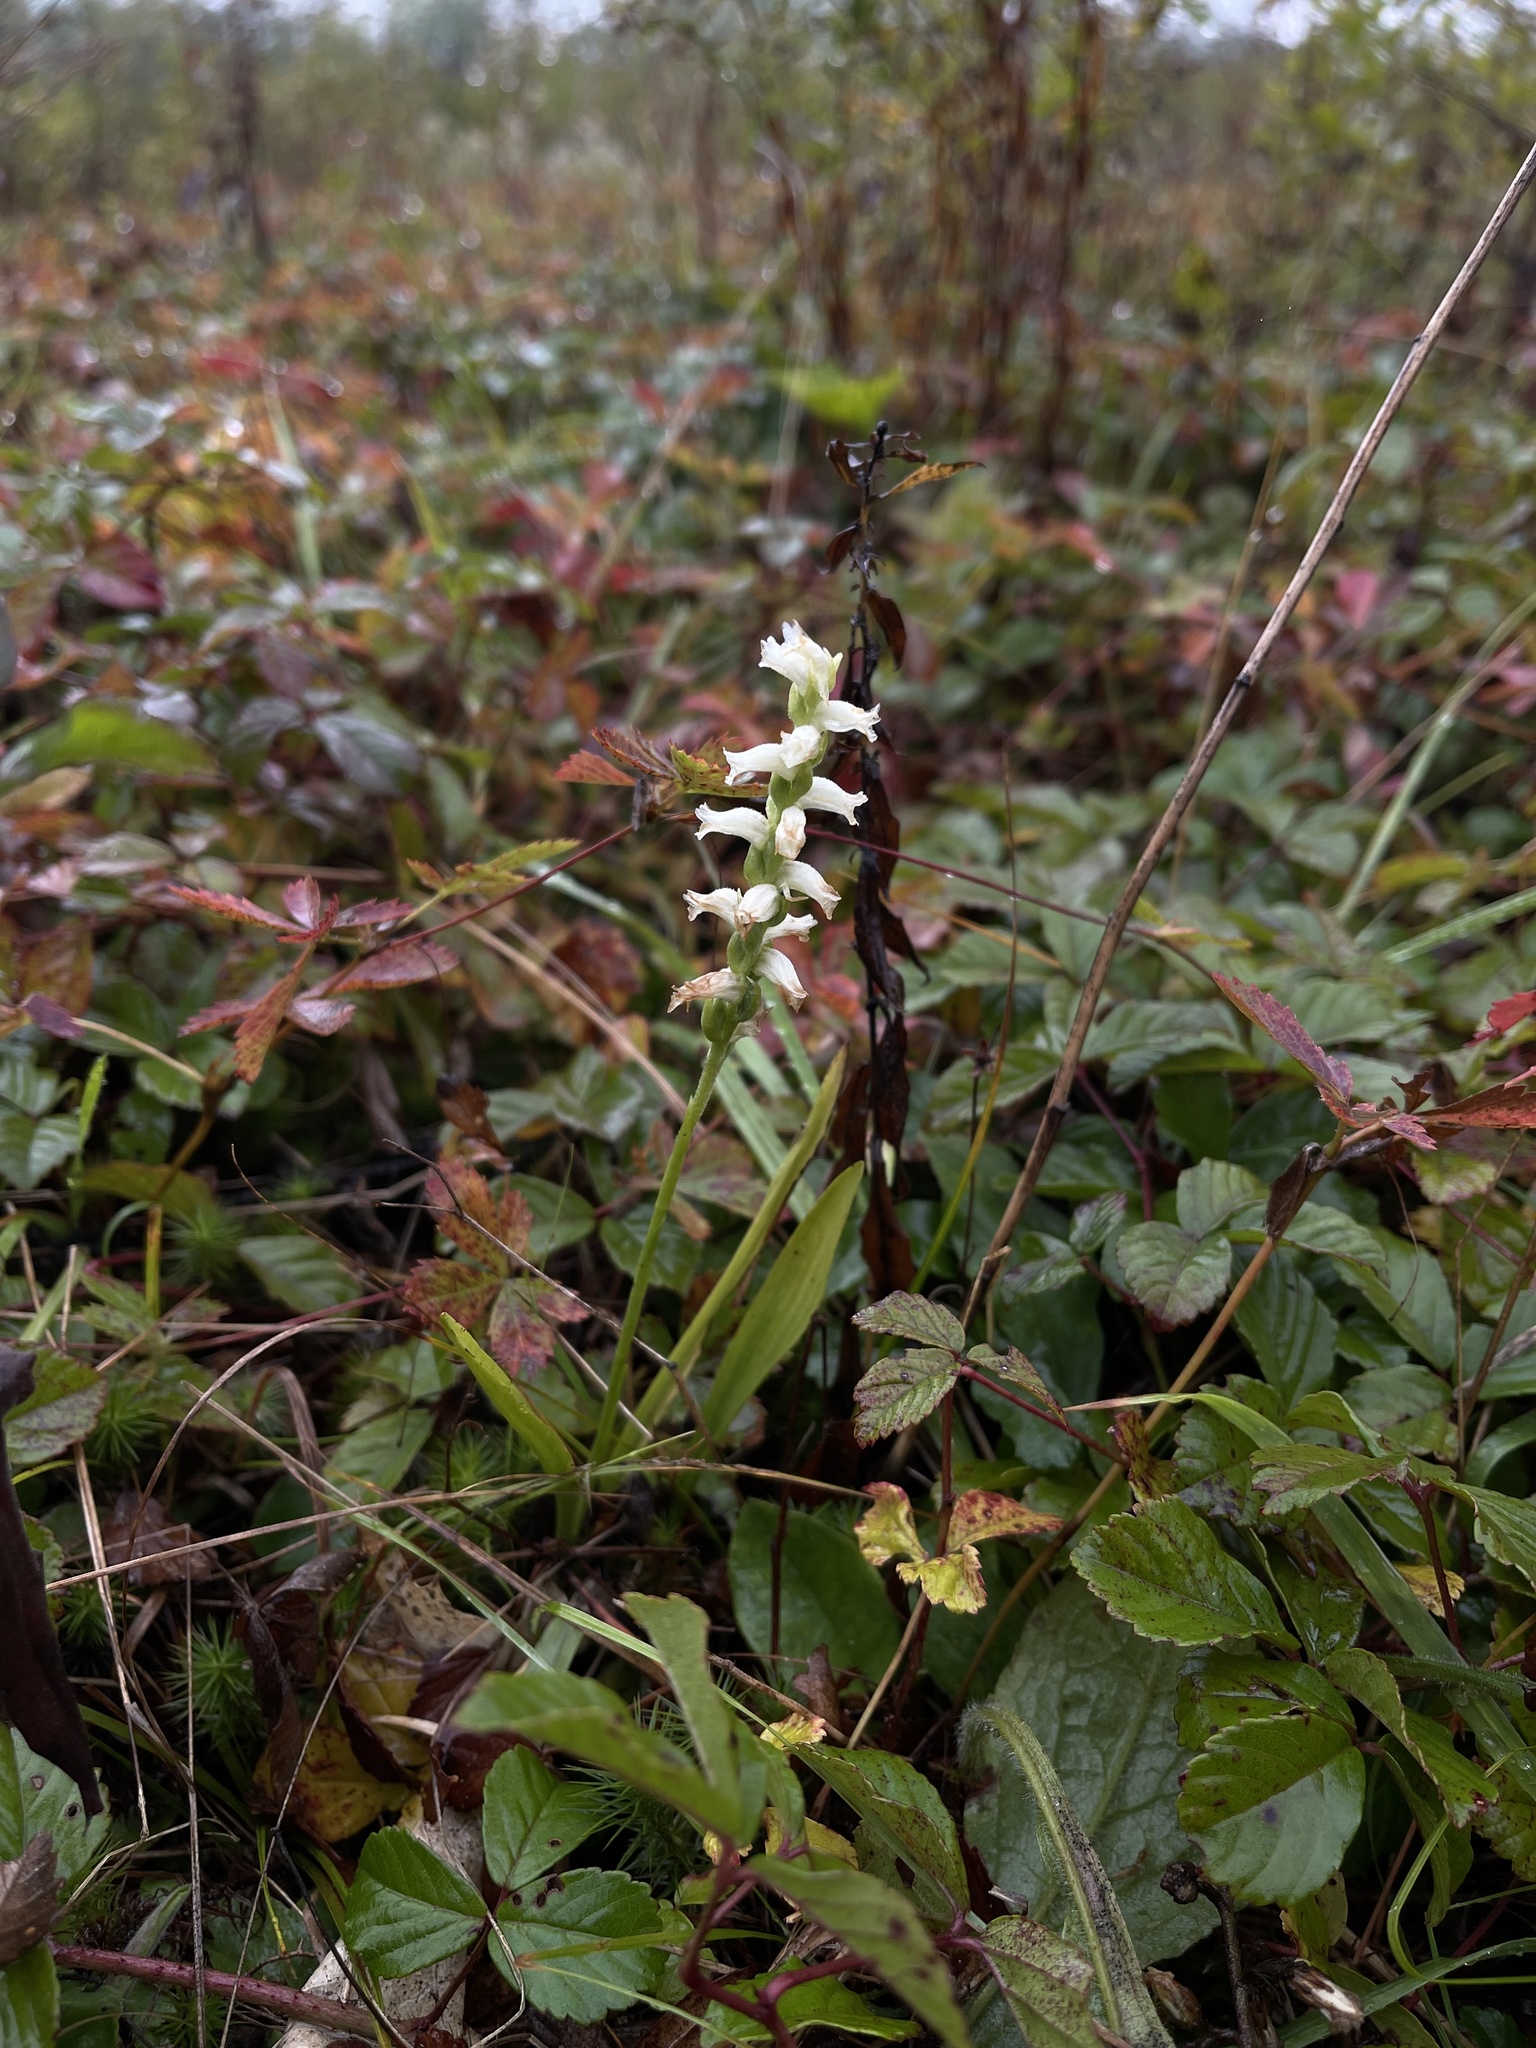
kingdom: Plantae
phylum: Tracheophyta
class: Liliopsida
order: Asparagales
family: Orchidaceae
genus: Spiranthes
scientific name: Spiranthes ochroleuca
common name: Yellow ladies'-tresses
